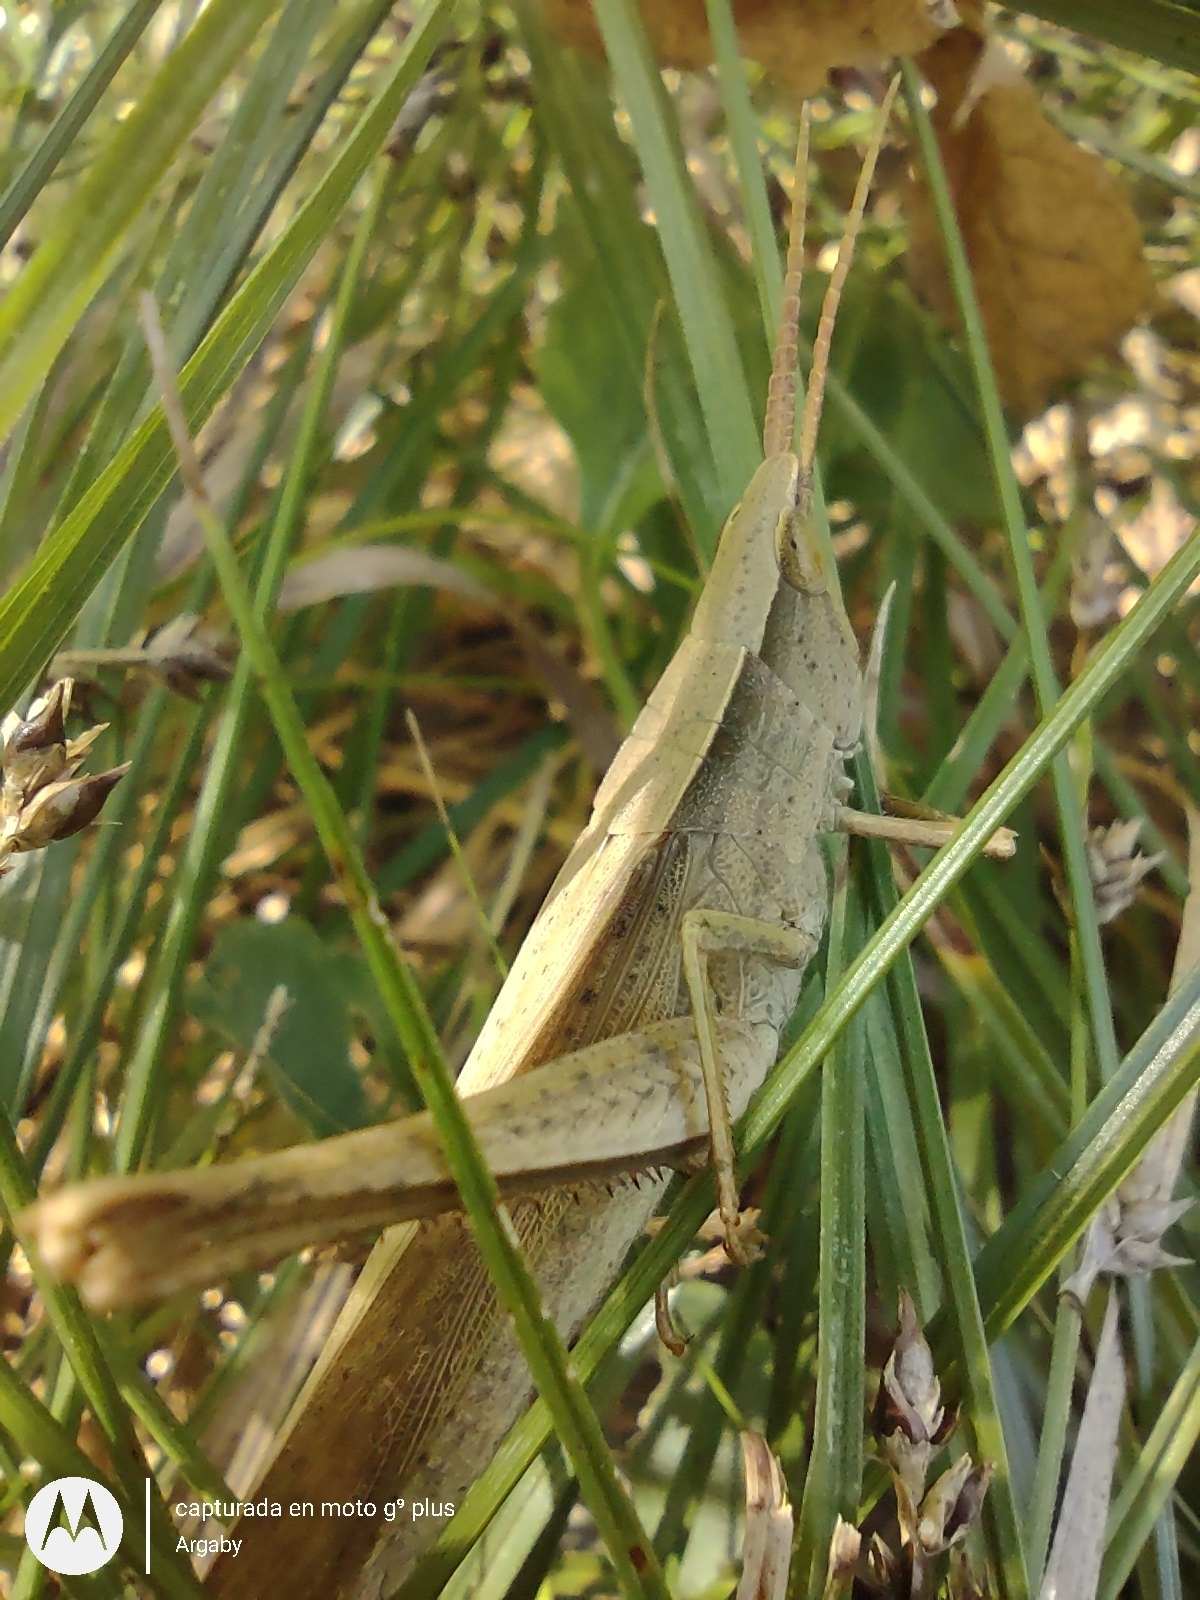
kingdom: Animalia
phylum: Arthropoda
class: Insecta
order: Orthoptera
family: Acrididae
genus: Metaleptea
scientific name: Metaleptea adspersa
